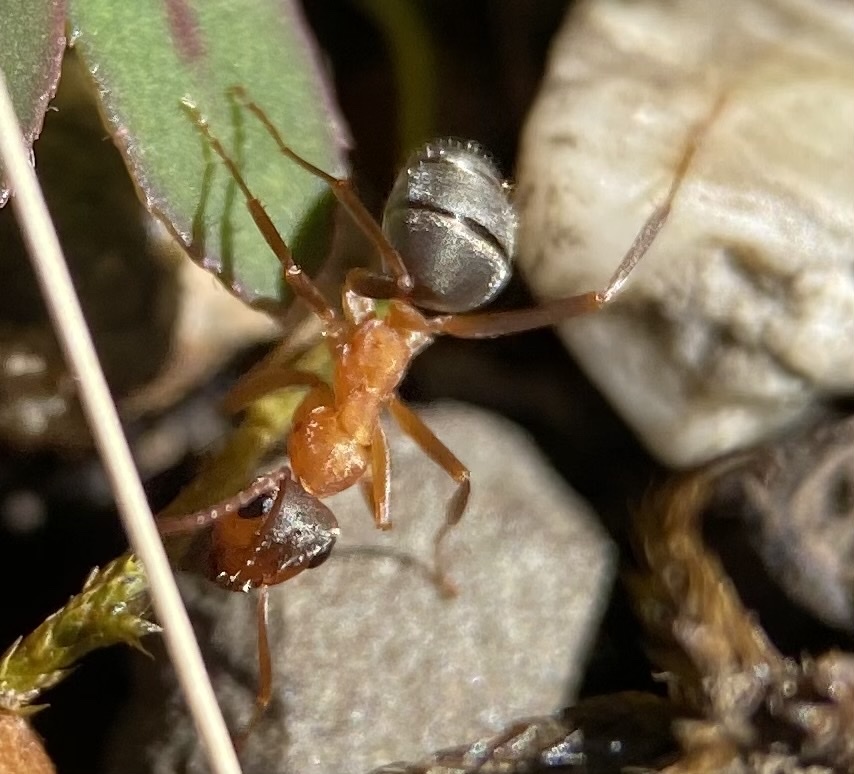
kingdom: Animalia
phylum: Arthropoda
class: Insecta
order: Hymenoptera
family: Formicidae
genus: Formica
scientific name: Formica moki
